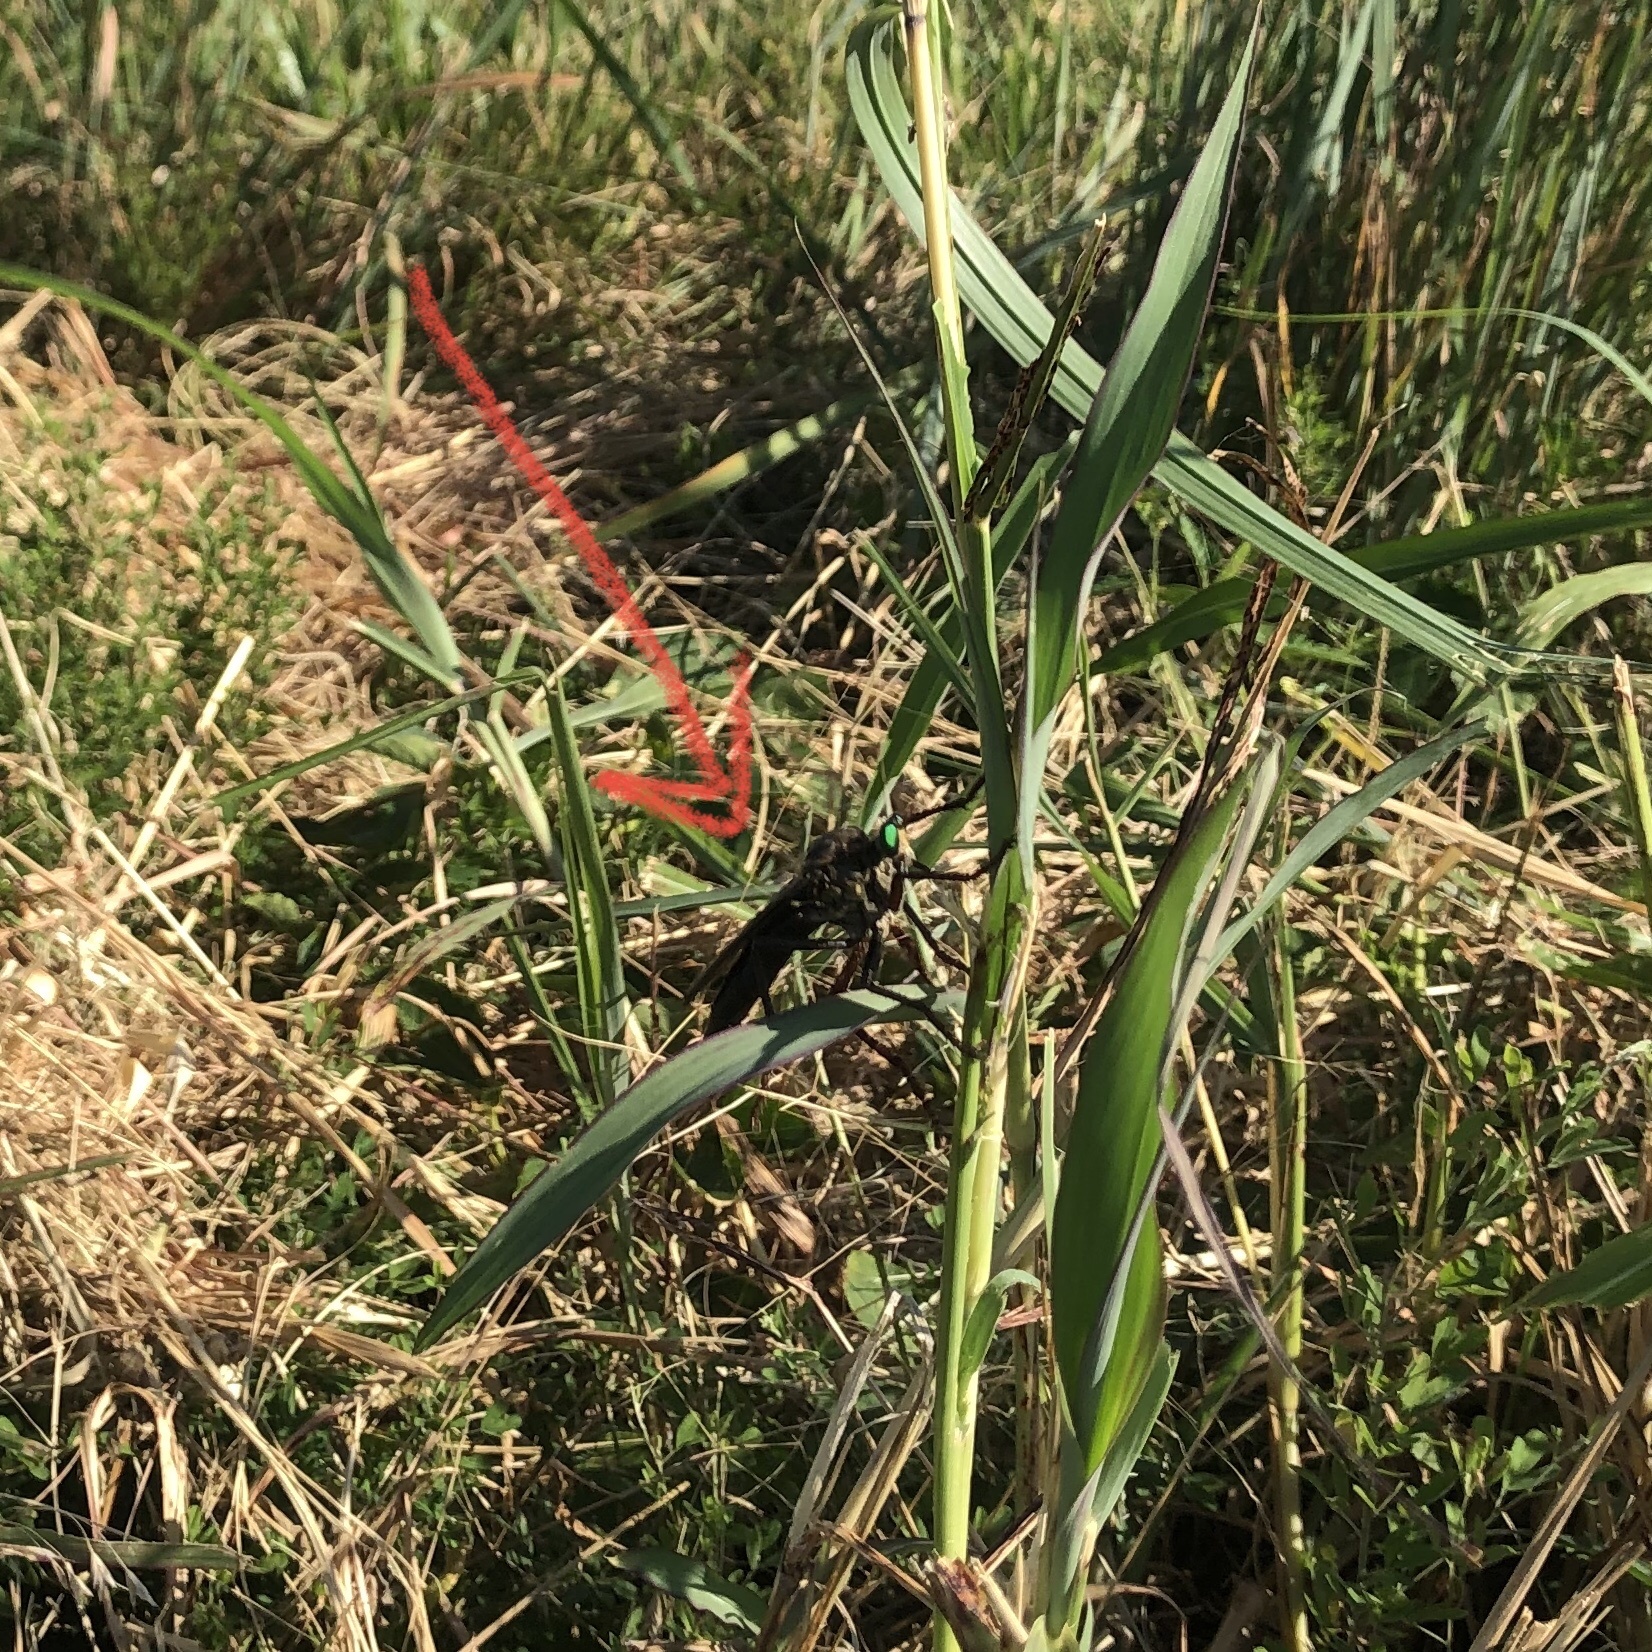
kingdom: Animalia
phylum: Arthropoda
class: Insecta
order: Diptera
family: Asilidae
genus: Microstylum
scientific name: Microstylum morosum
